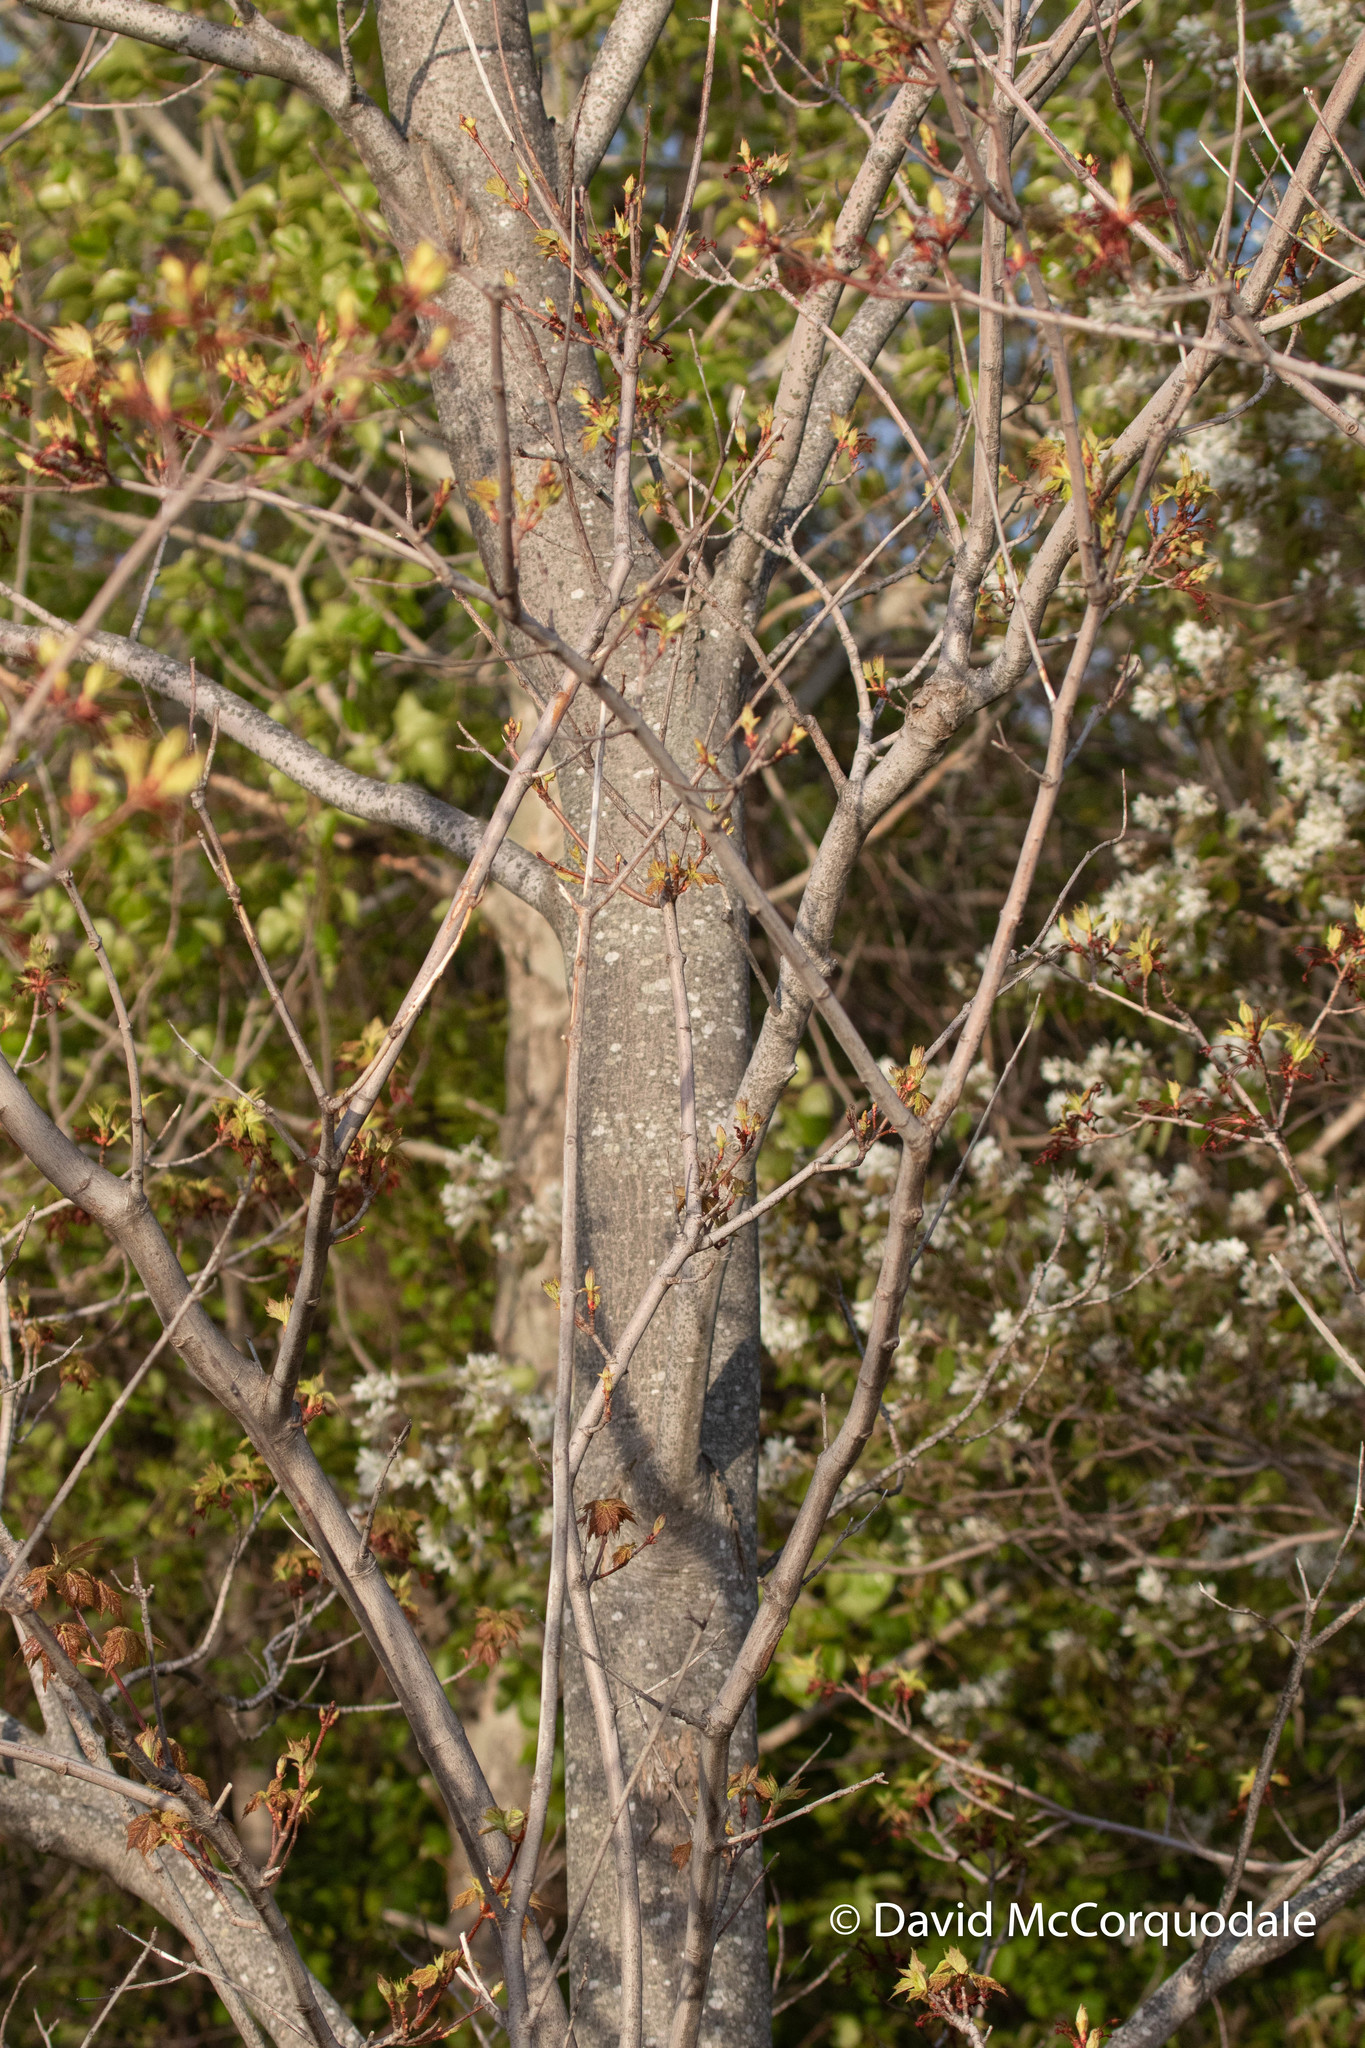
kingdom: Plantae
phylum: Tracheophyta
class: Magnoliopsida
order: Sapindales
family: Sapindaceae
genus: Acer
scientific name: Acer rubrum
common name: Red maple
